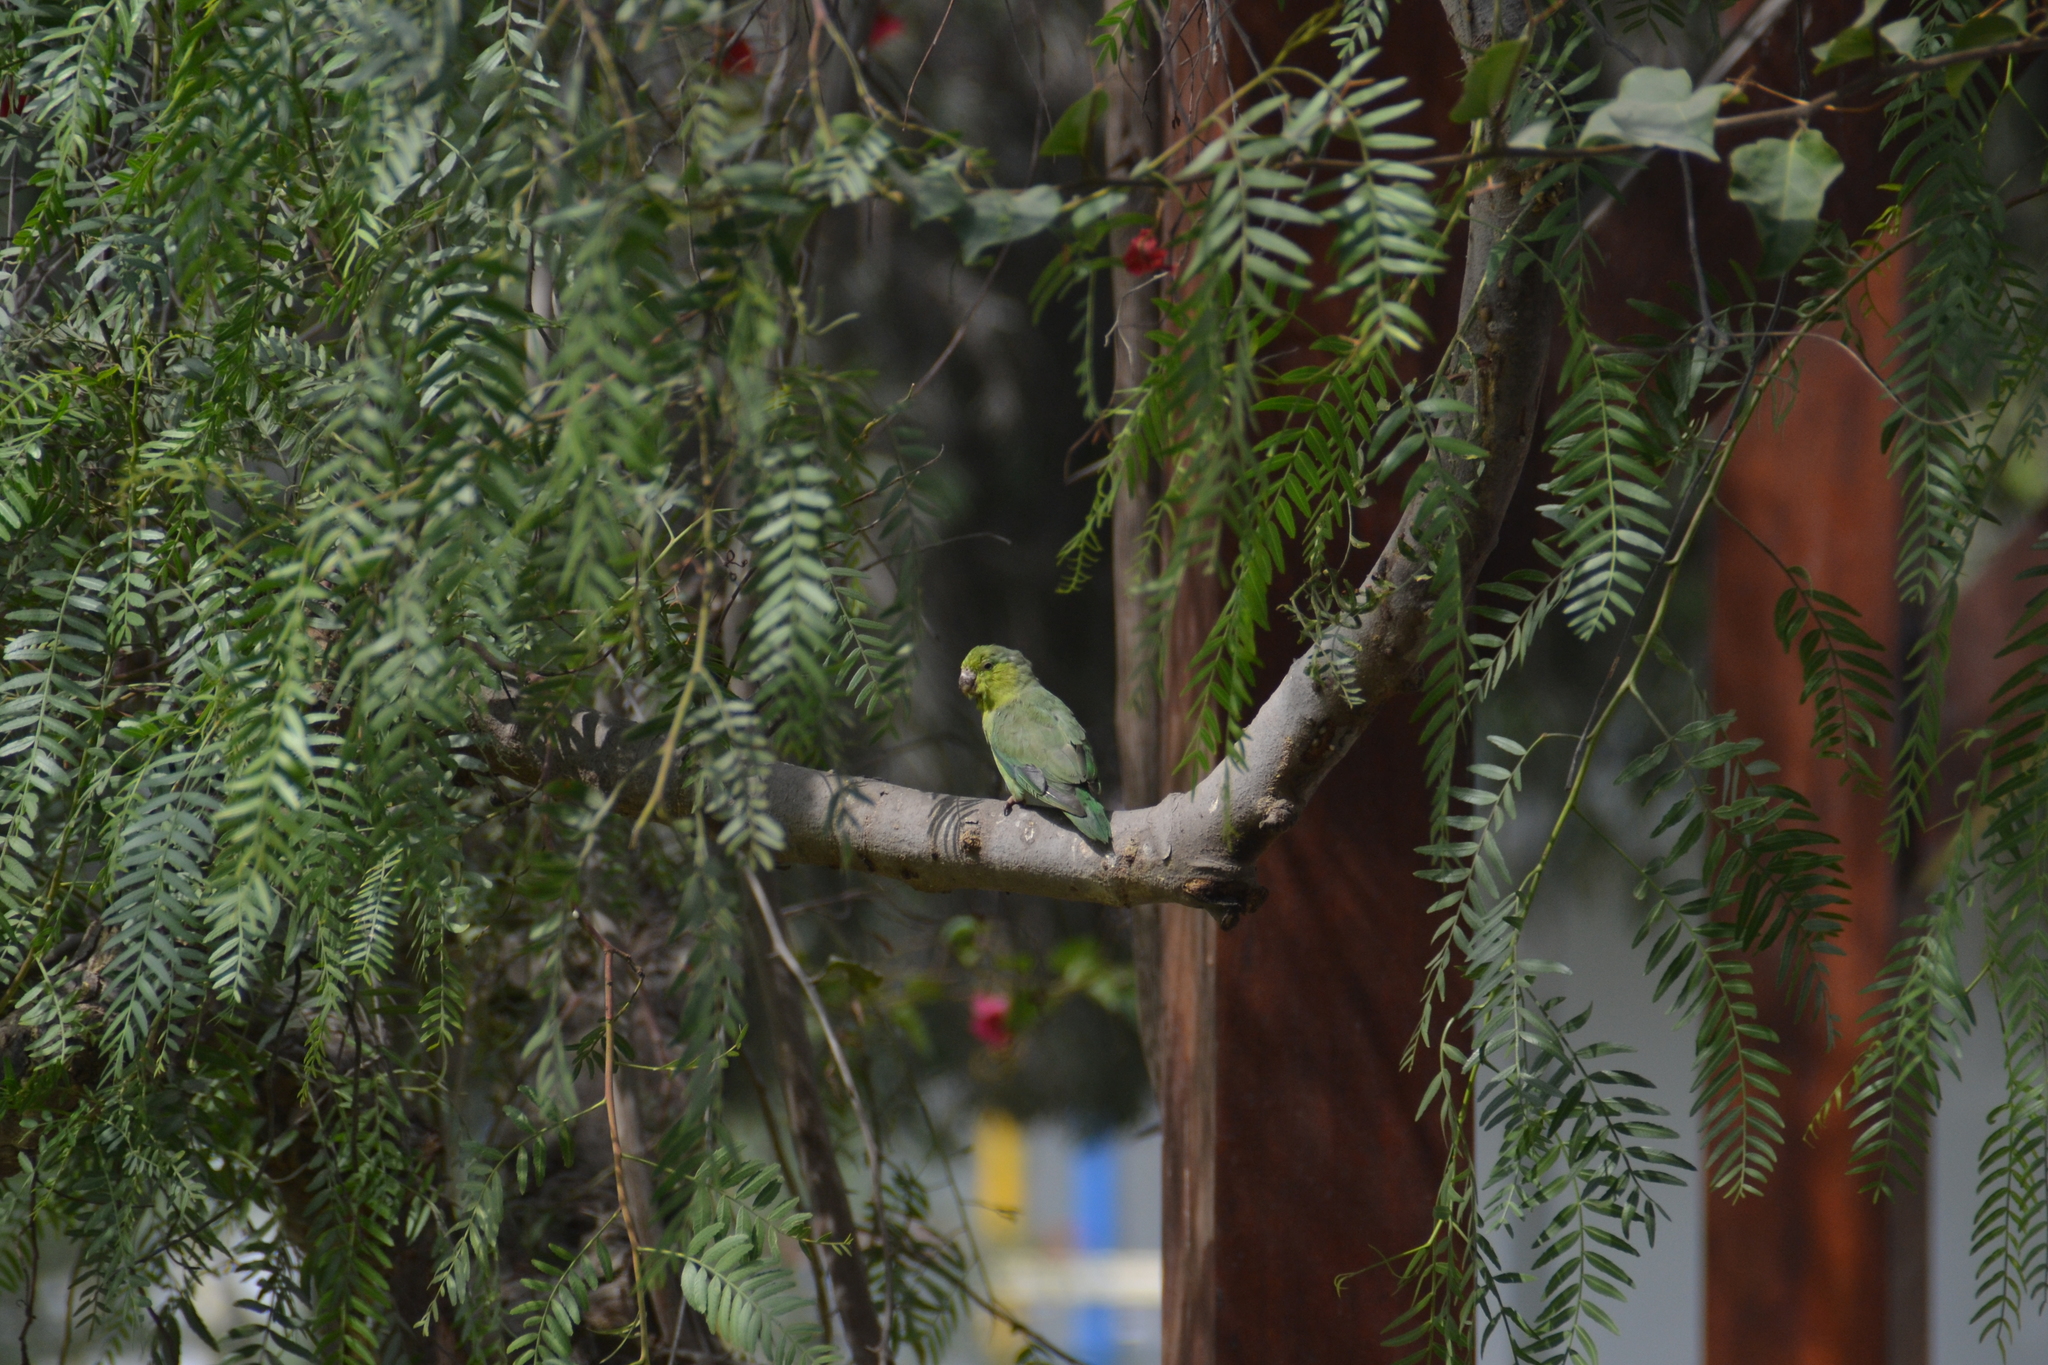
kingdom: Animalia
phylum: Chordata
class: Aves
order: Psittaciformes
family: Psittacidae
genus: Forpus
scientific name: Forpus coelestis
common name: Pacific parrotlet
